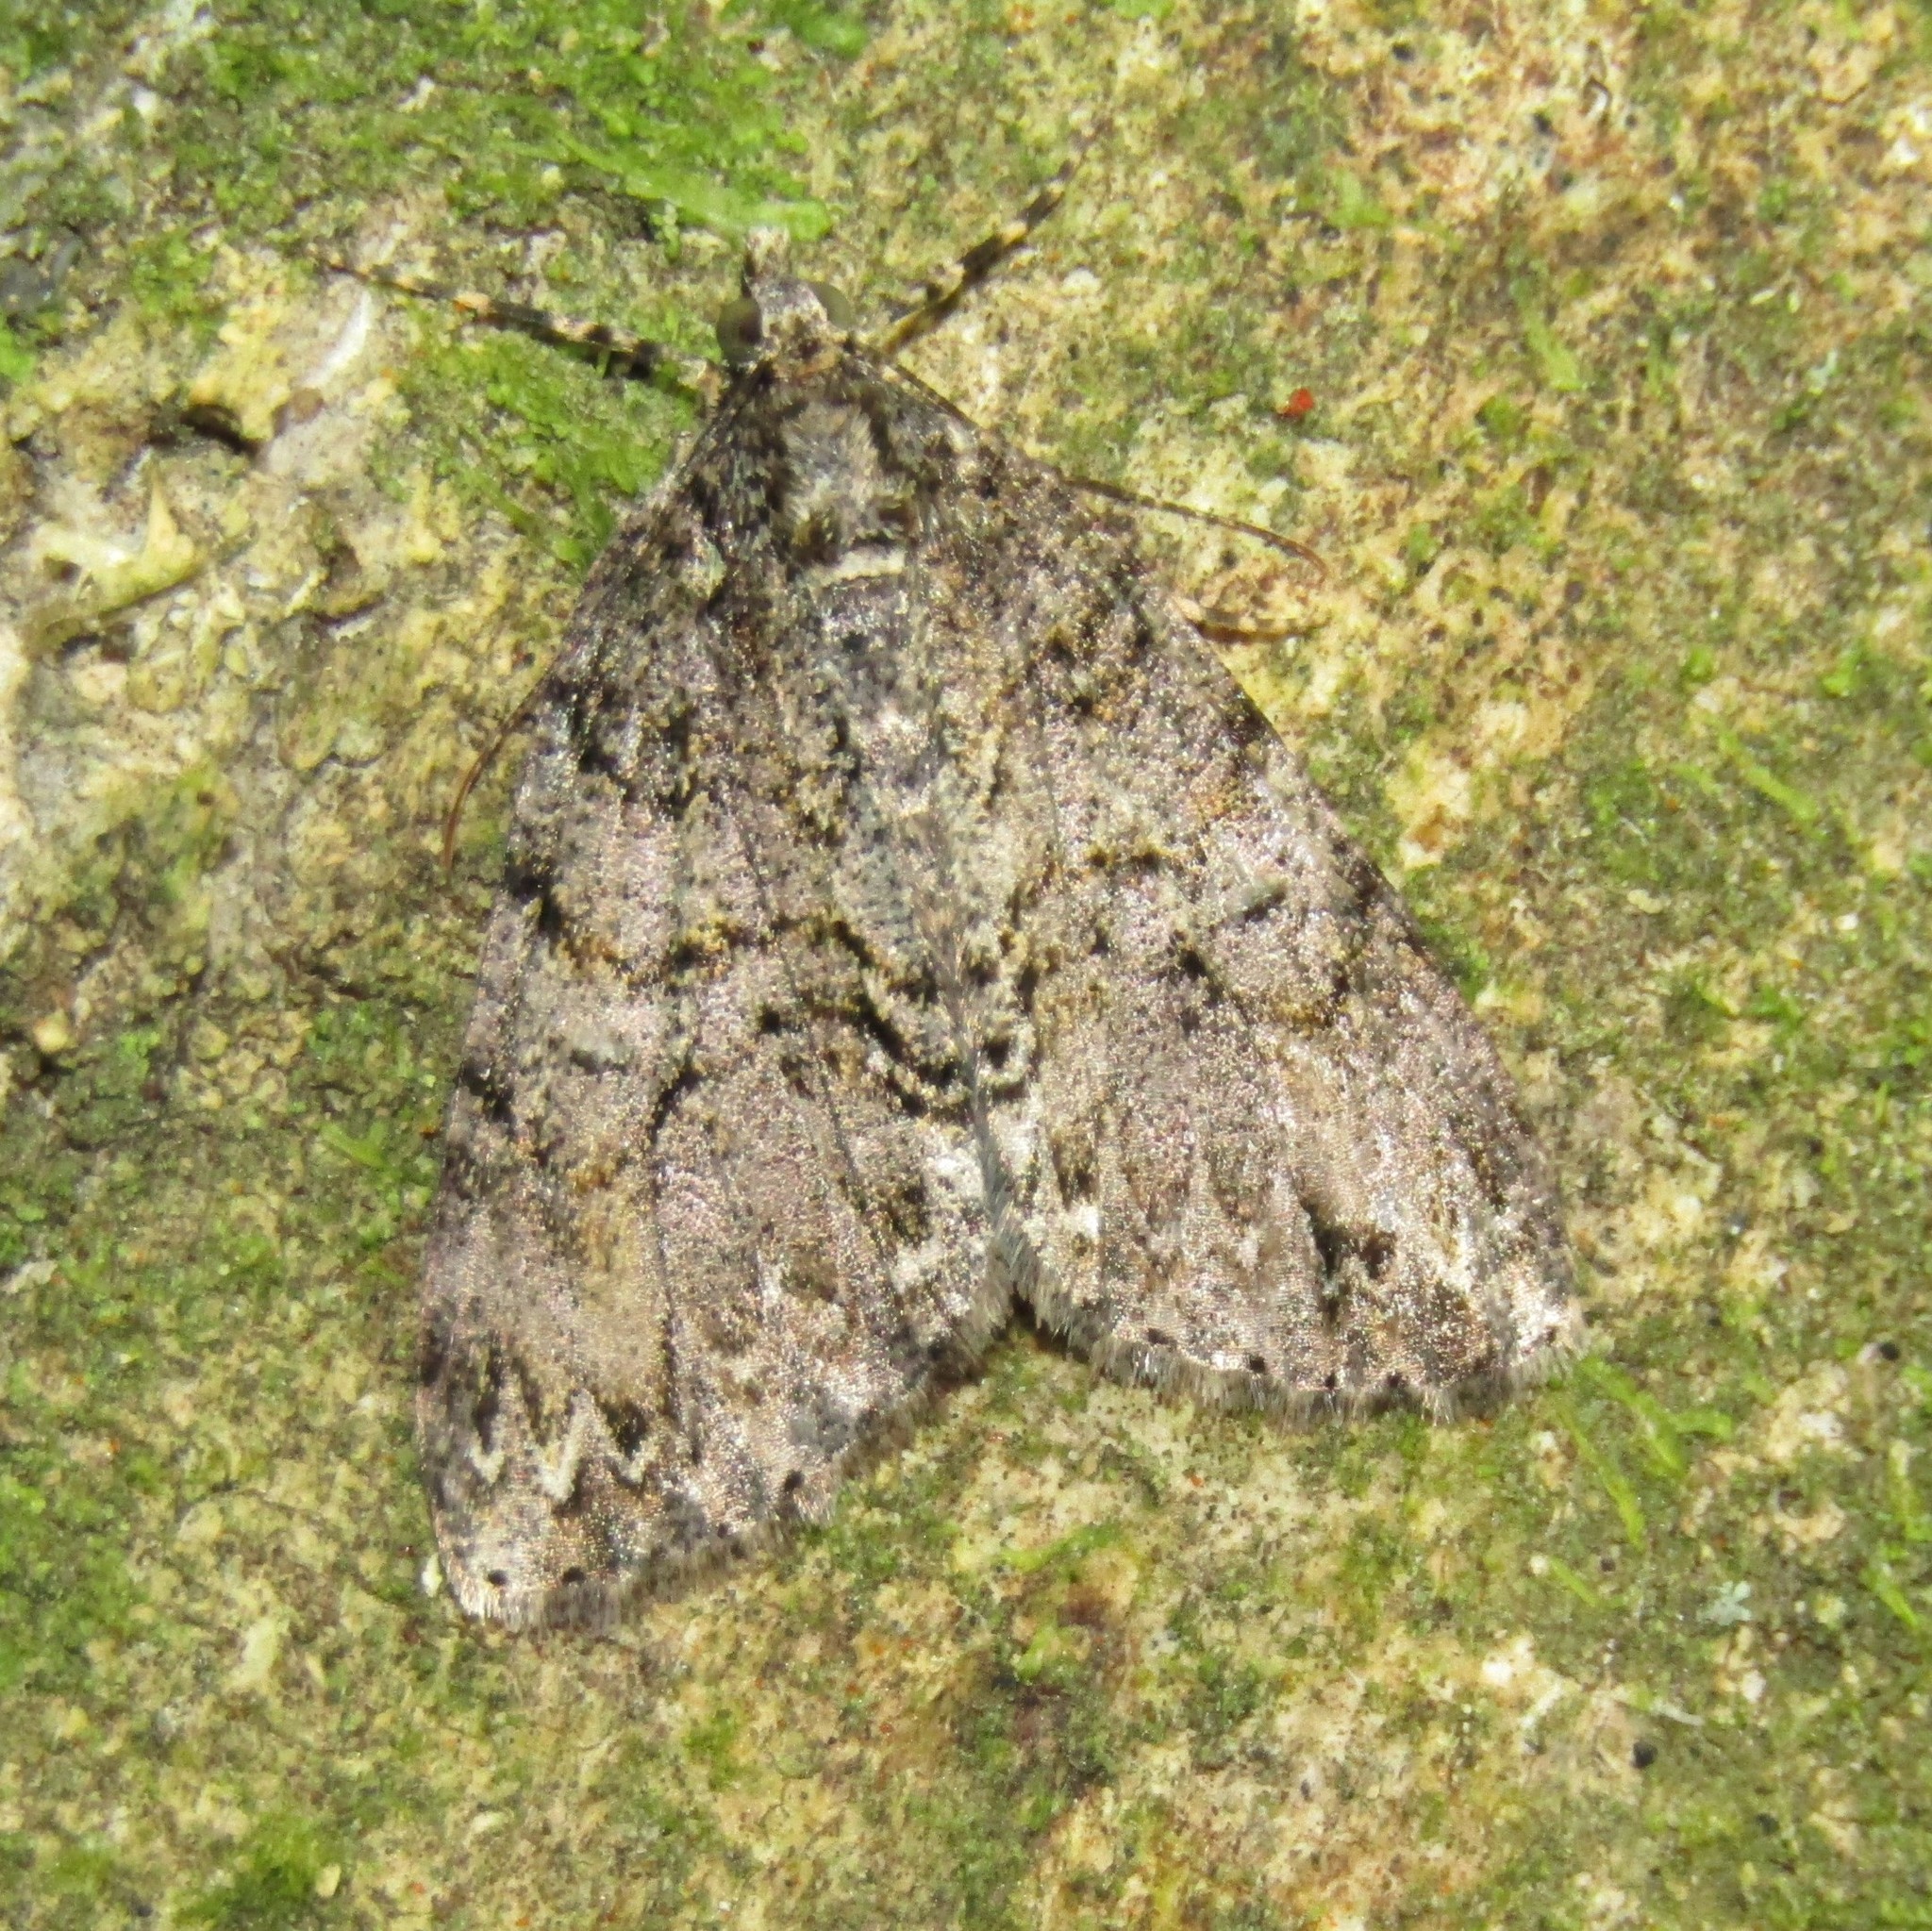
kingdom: Animalia
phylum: Arthropoda
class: Insecta
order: Lepidoptera
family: Geometridae
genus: Pseudocoremia
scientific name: Pseudocoremia suavis
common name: Common forest looper
